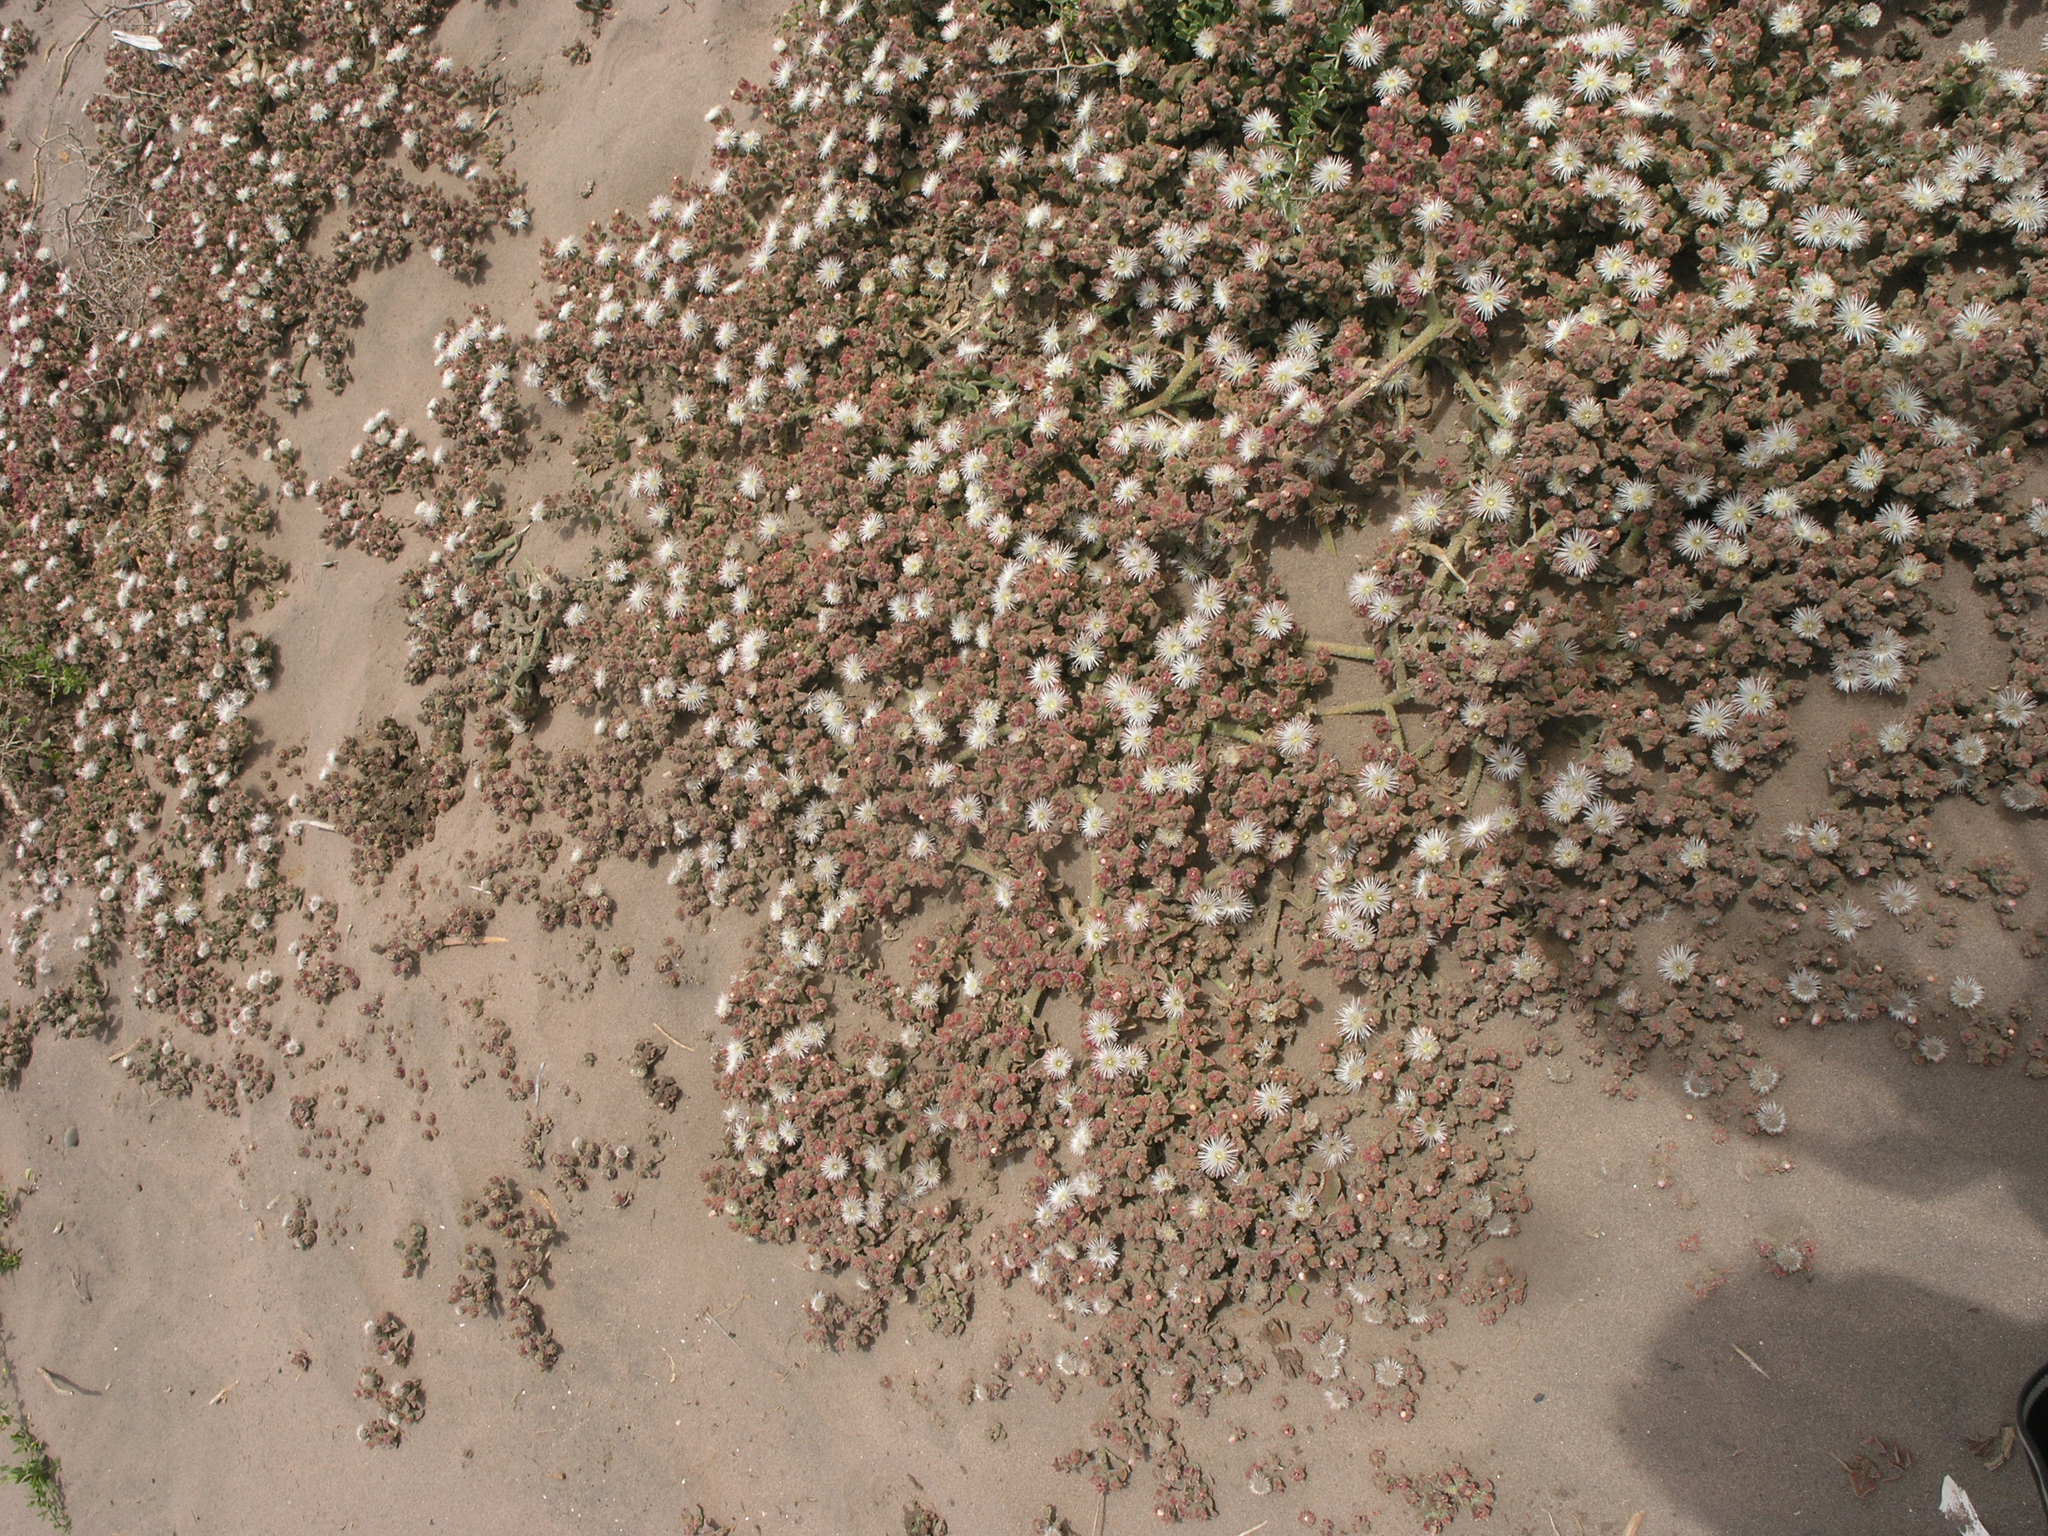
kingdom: Plantae
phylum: Tracheophyta
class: Magnoliopsida
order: Caryophyllales
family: Aizoaceae
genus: Mesembryanthemum
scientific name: Mesembryanthemum crystallinum
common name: Common iceplant
